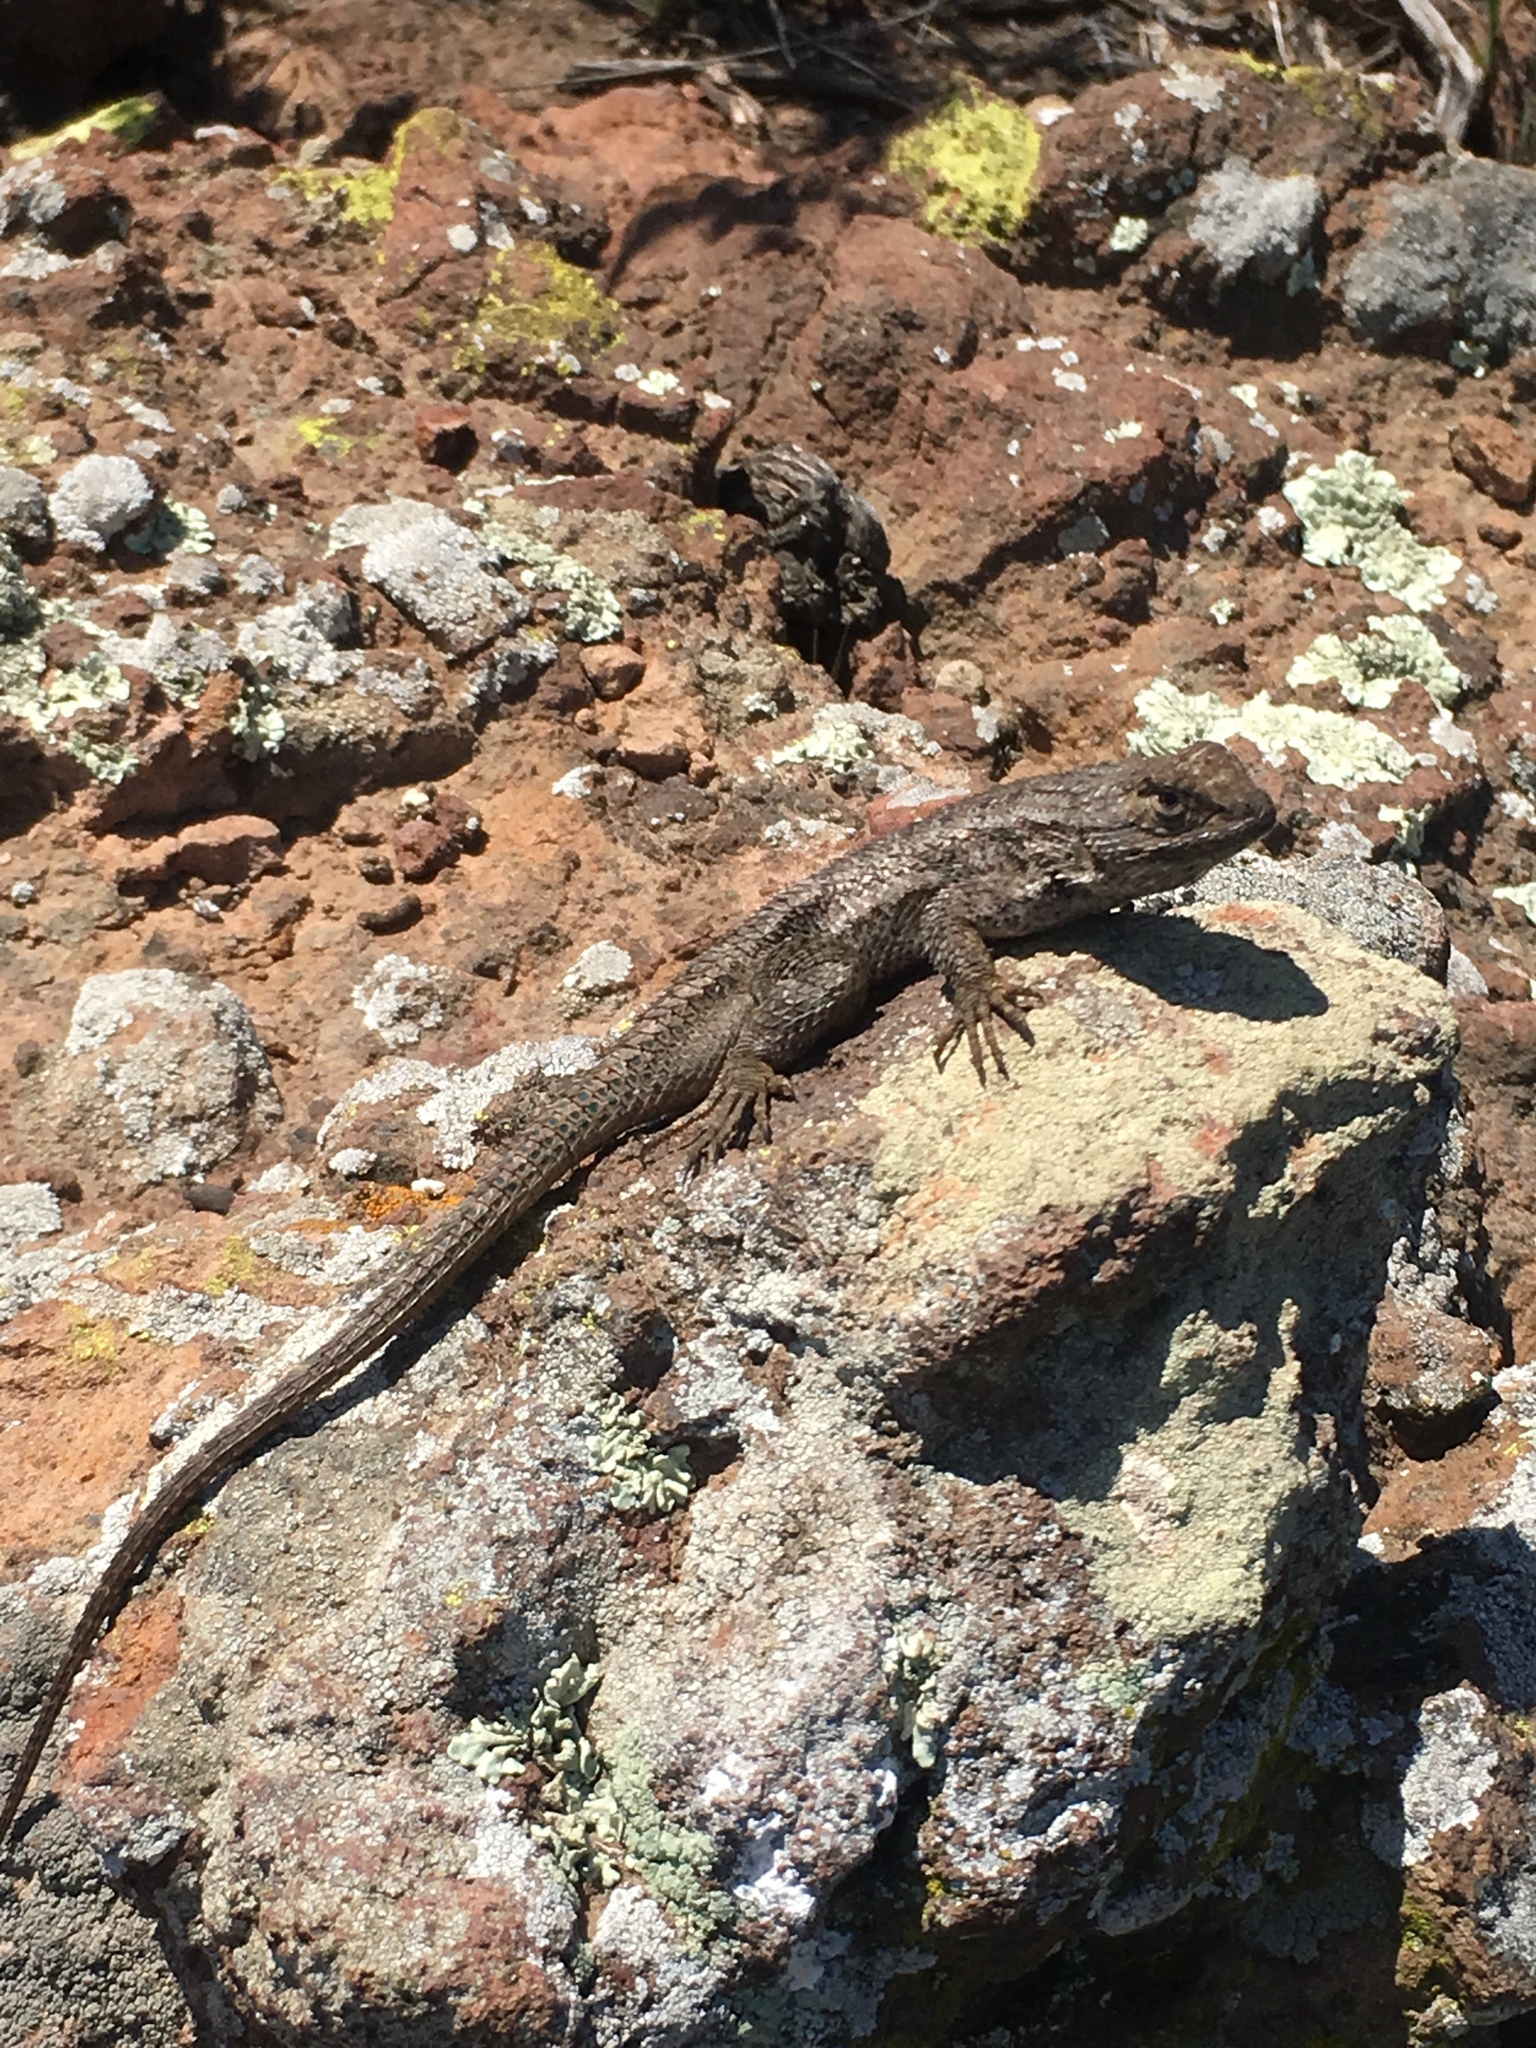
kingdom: Animalia
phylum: Chordata
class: Squamata
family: Phrynosomatidae
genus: Sceloporus
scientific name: Sceloporus occidentalis
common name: Western fence lizard
